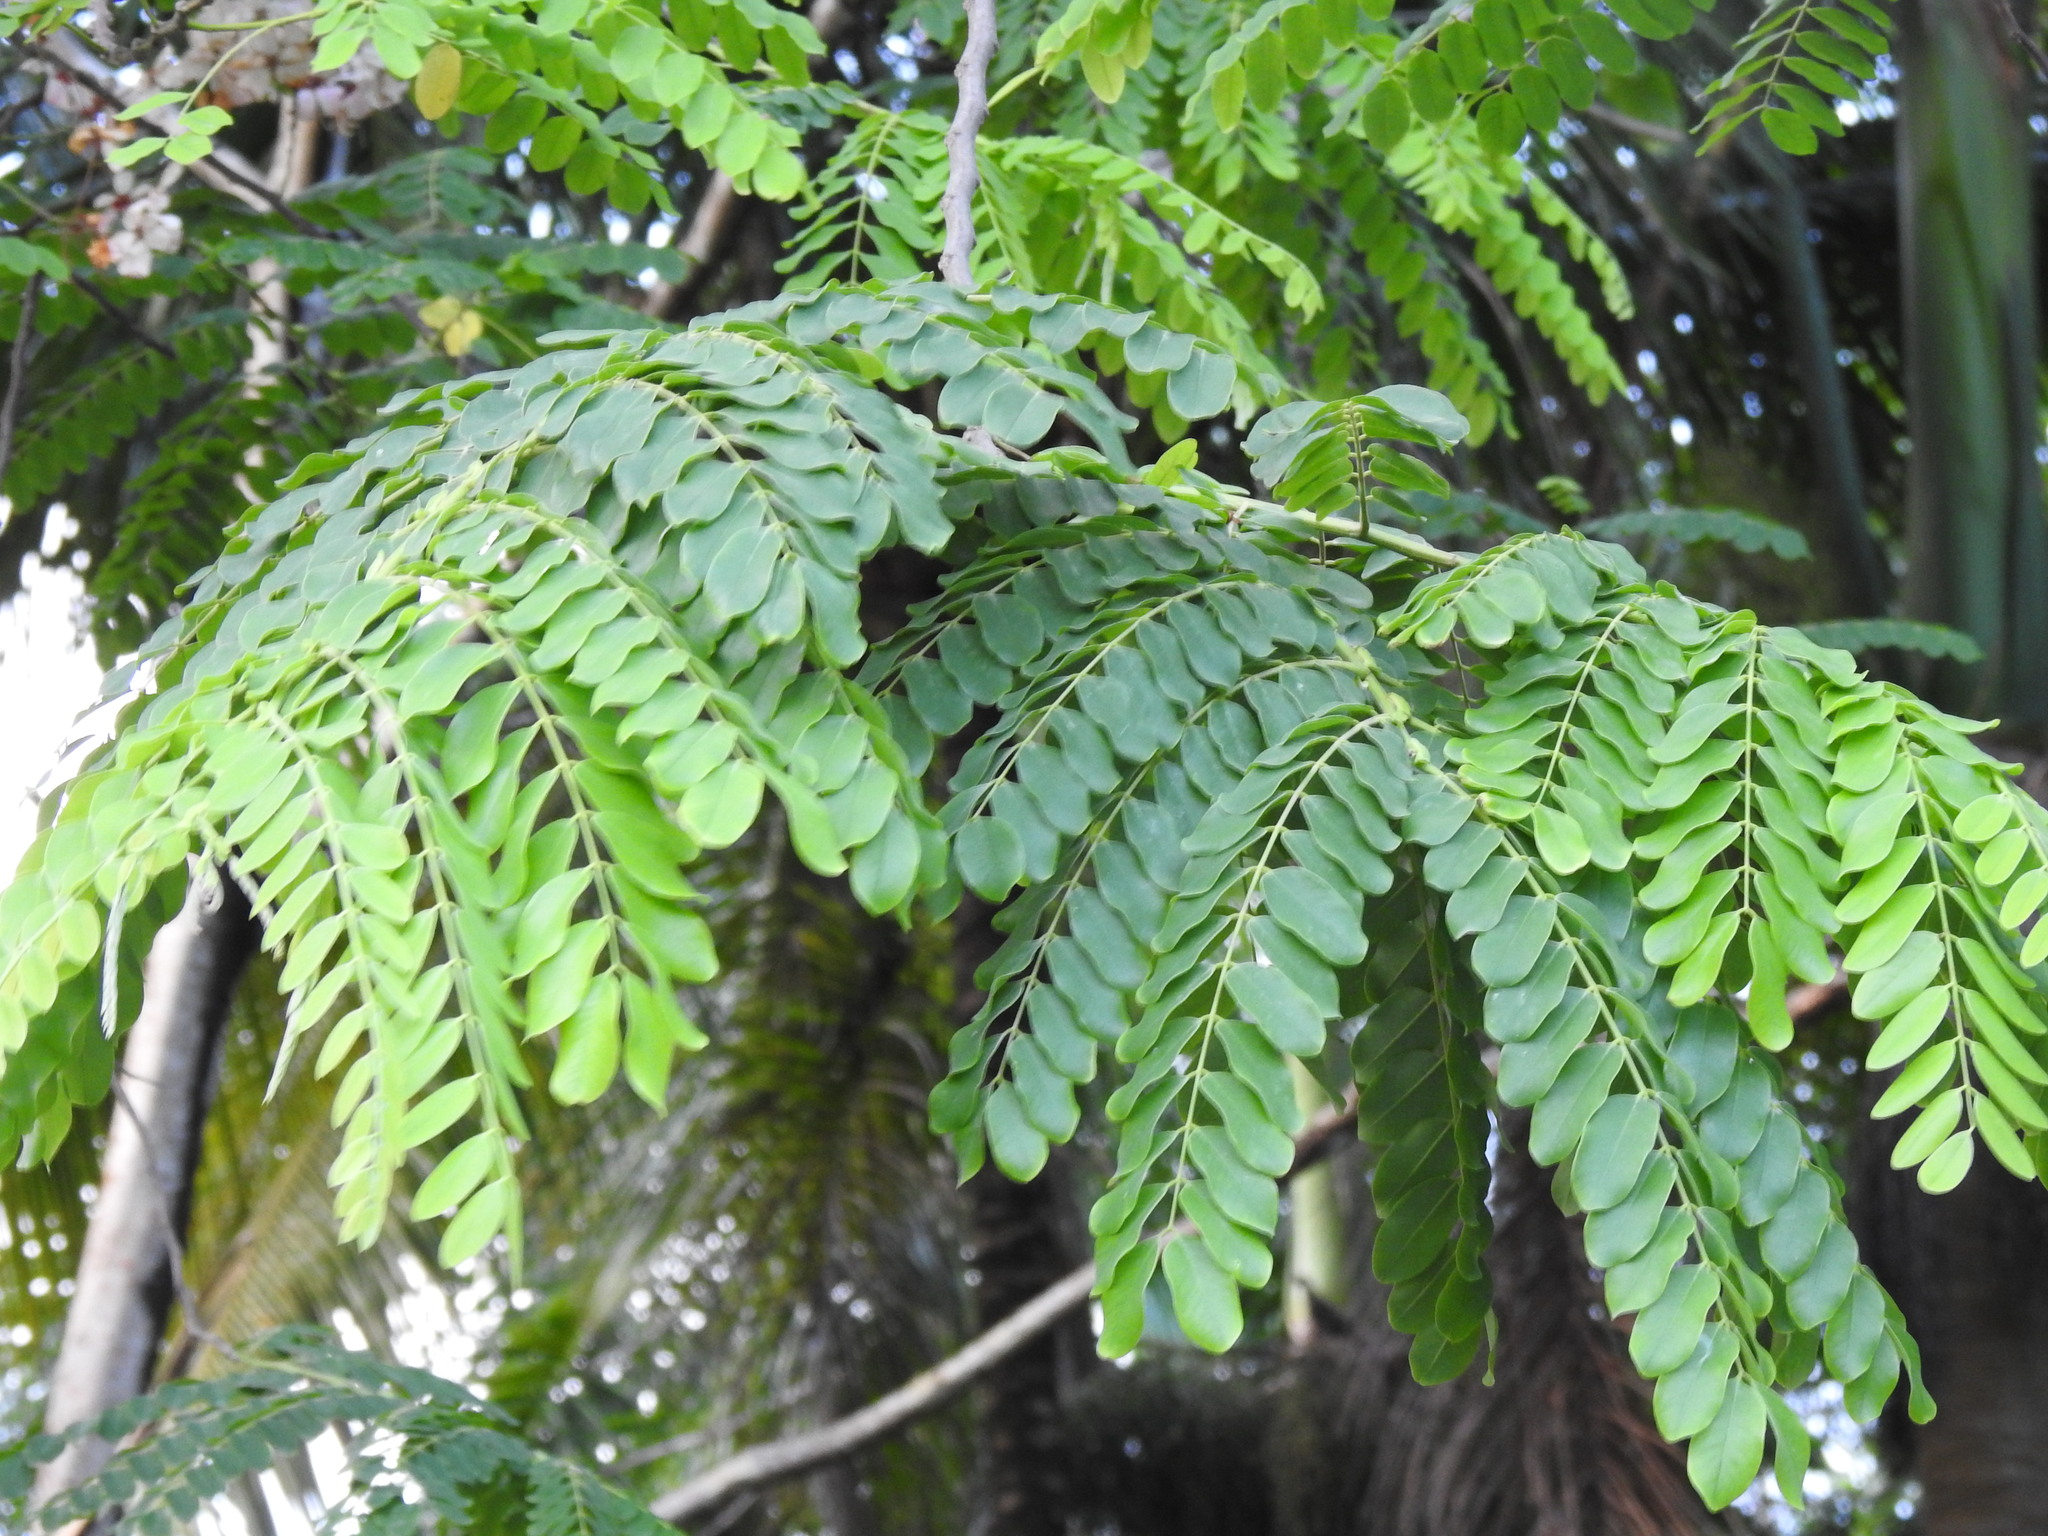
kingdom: Plantae
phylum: Tracheophyta
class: Magnoliopsida
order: Fabales
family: Fabaceae
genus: Cassia
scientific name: Cassia javanica
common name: Apple blossom
